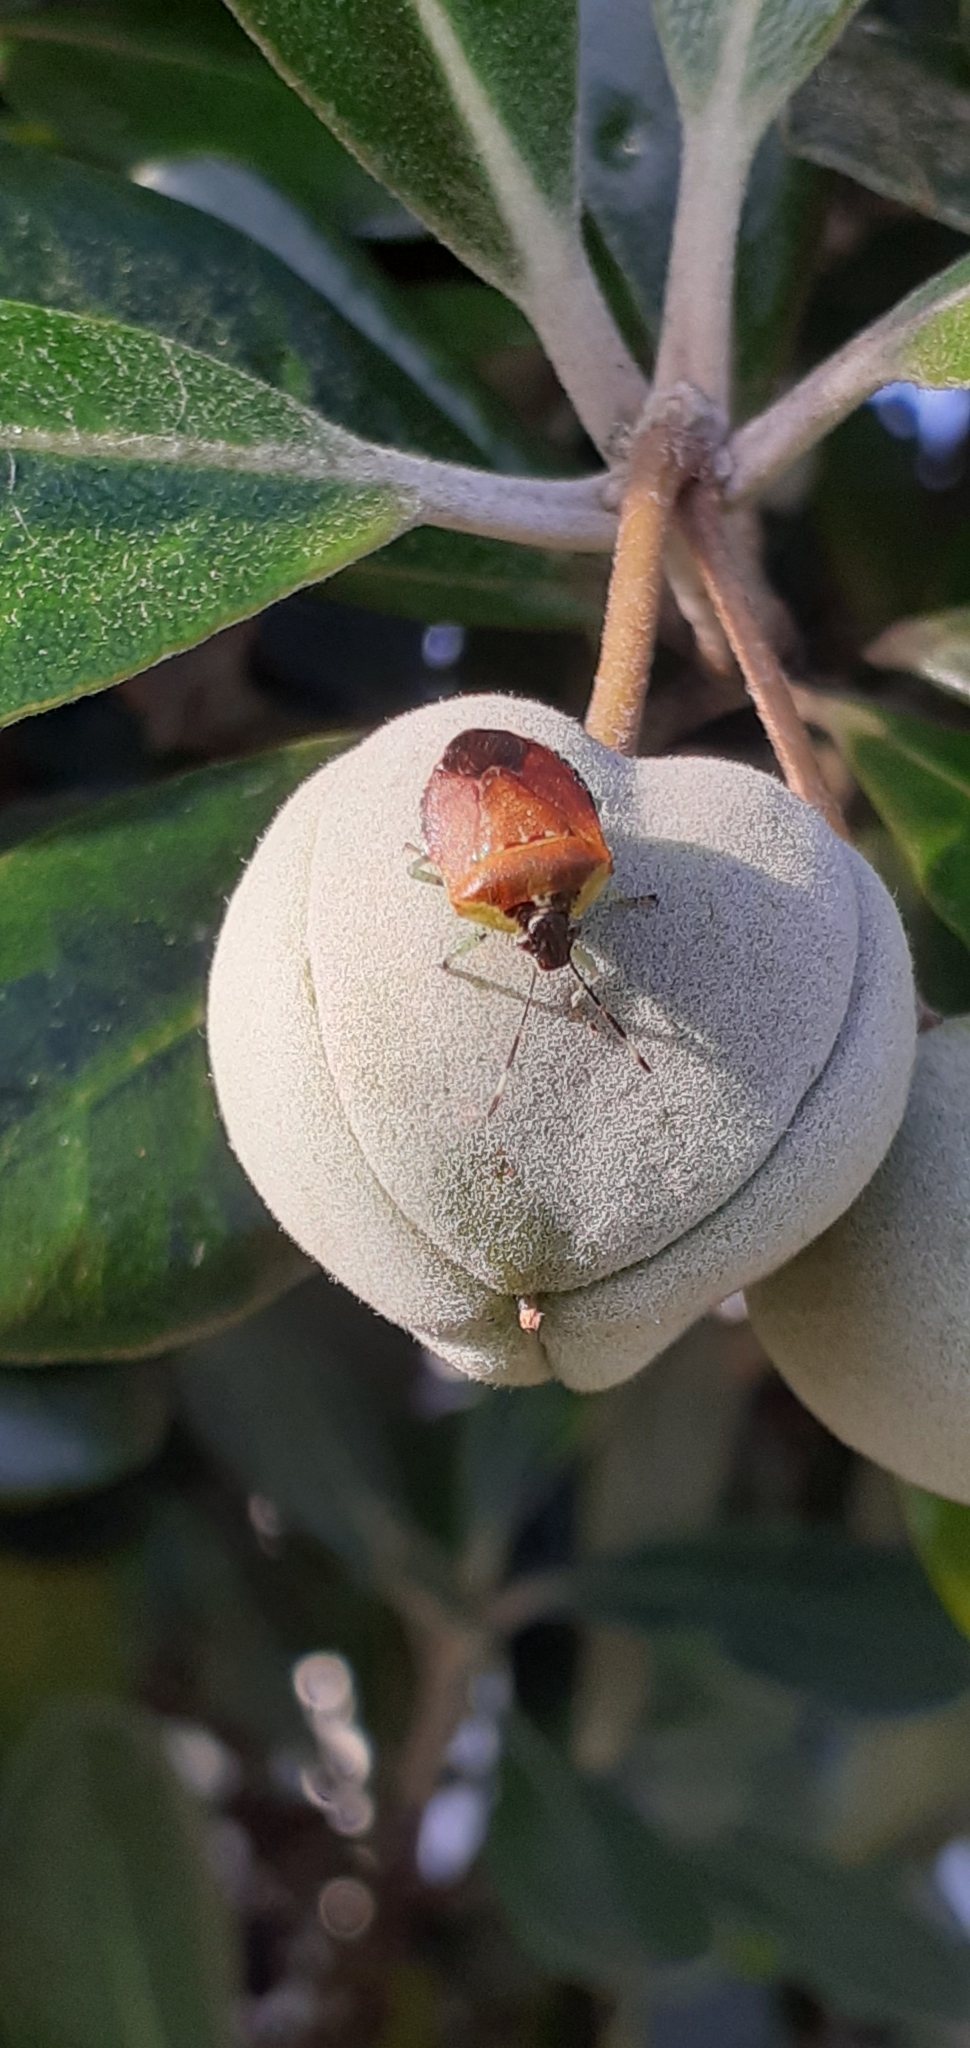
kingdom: Animalia
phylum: Arthropoda
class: Insecta
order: Hemiptera
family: Pentatomidae
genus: Monteithiella
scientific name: Monteithiella
